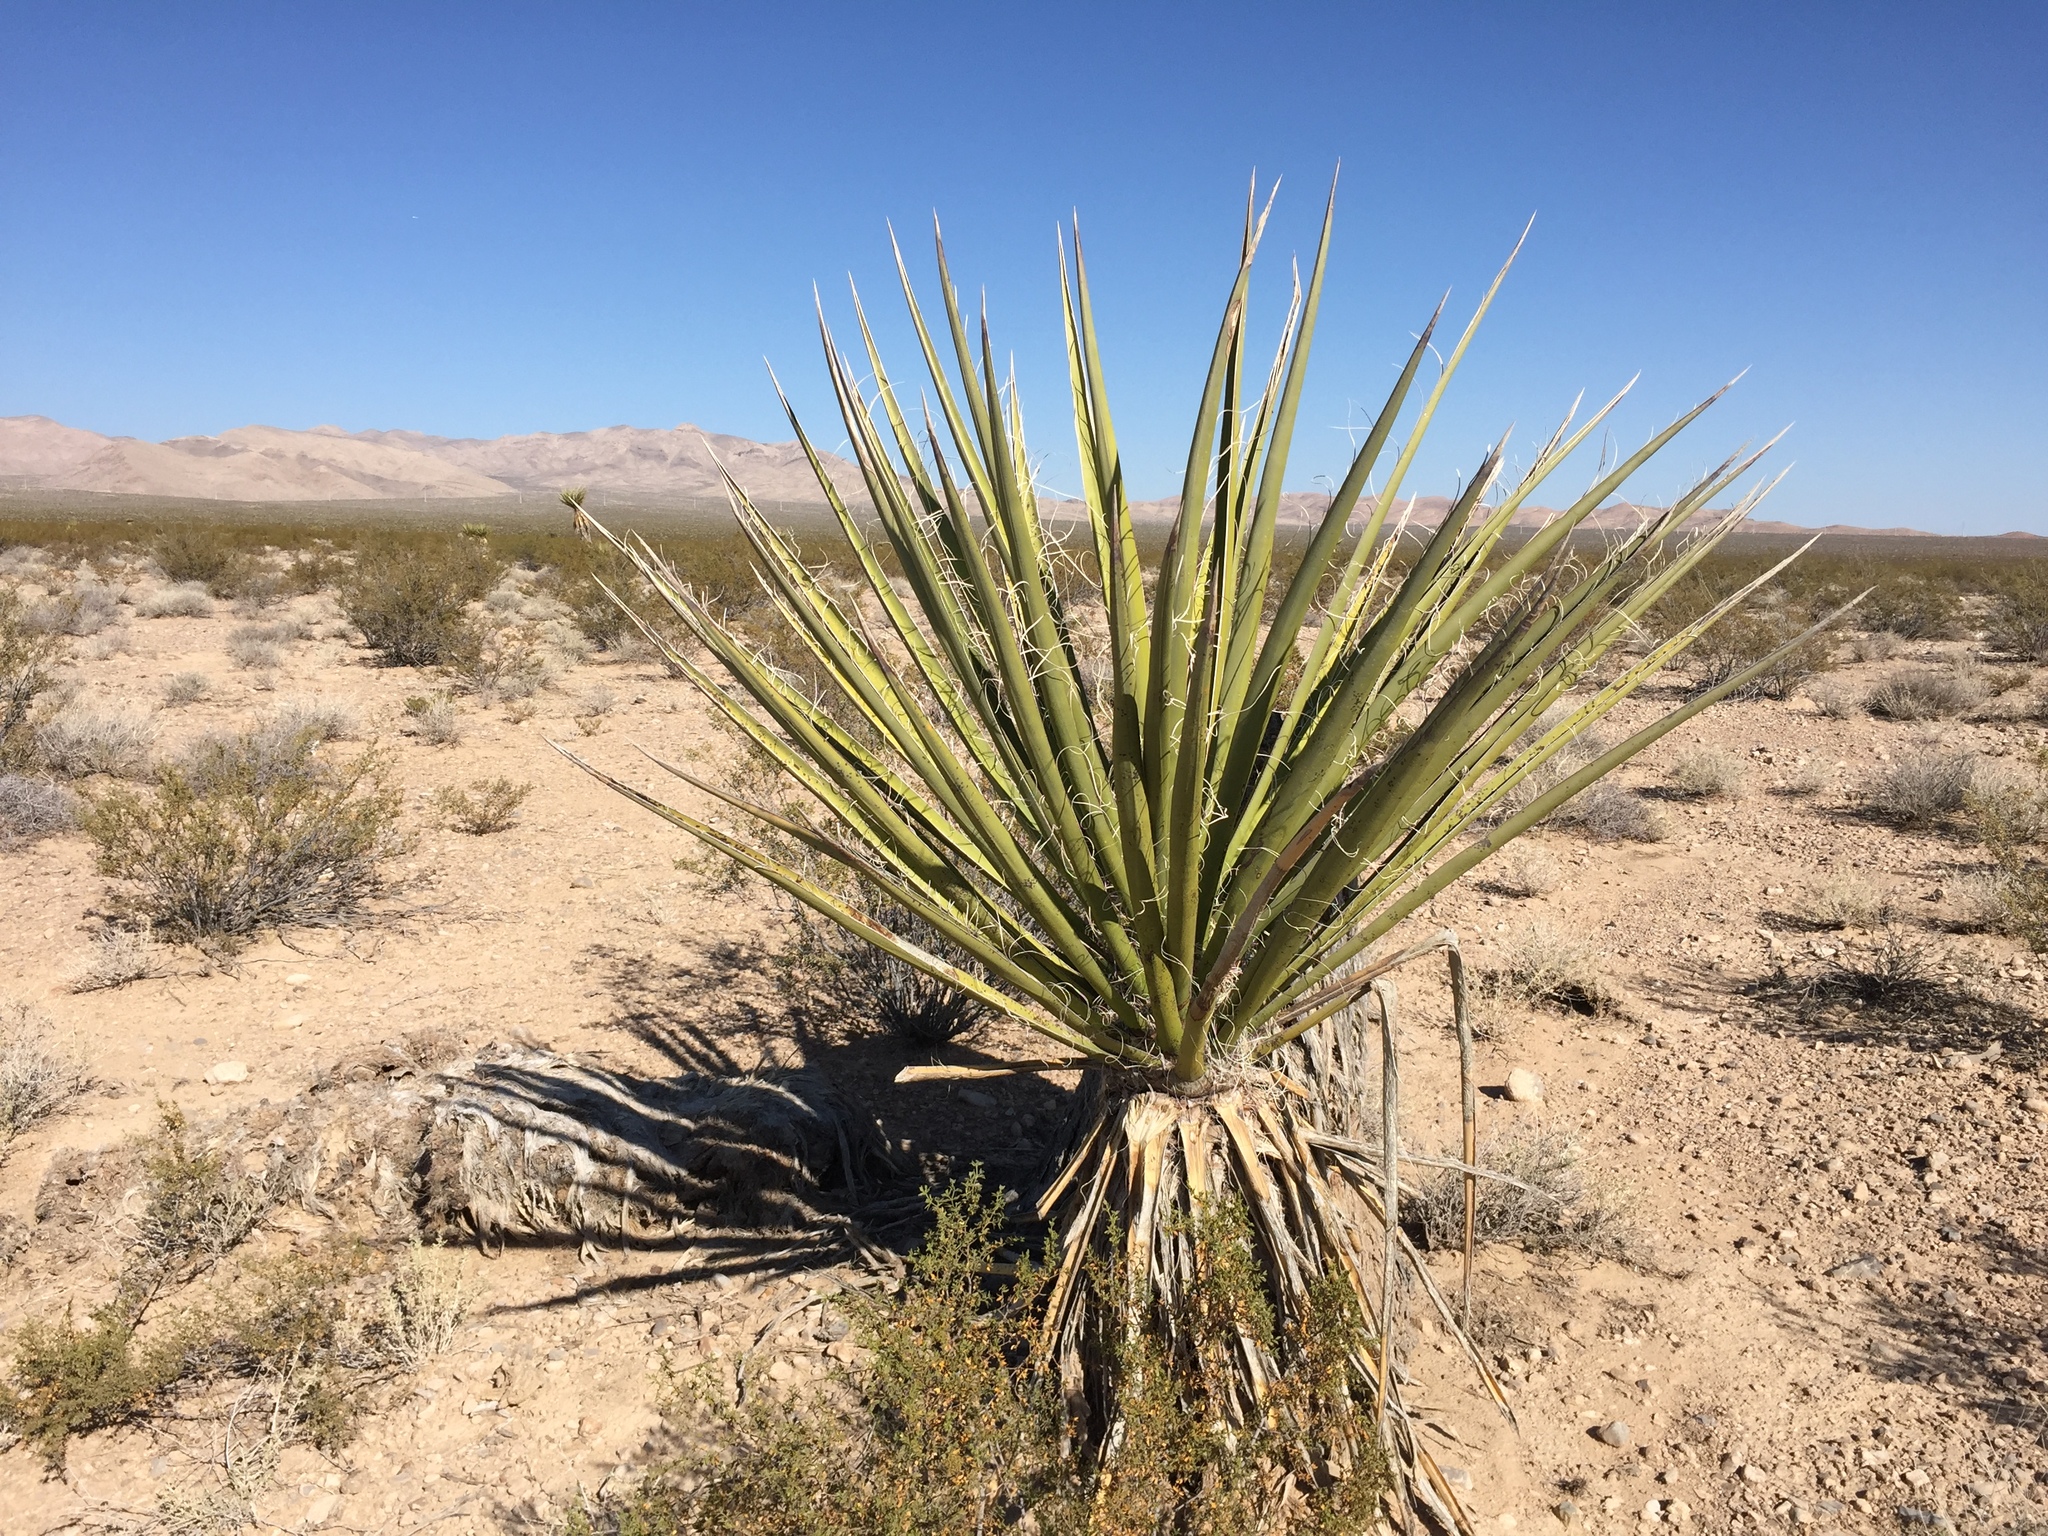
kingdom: Plantae
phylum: Tracheophyta
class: Liliopsida
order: Asparagales
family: Asparagaceae
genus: Yucca
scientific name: Yucca schidigera
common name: Mojave yucca
